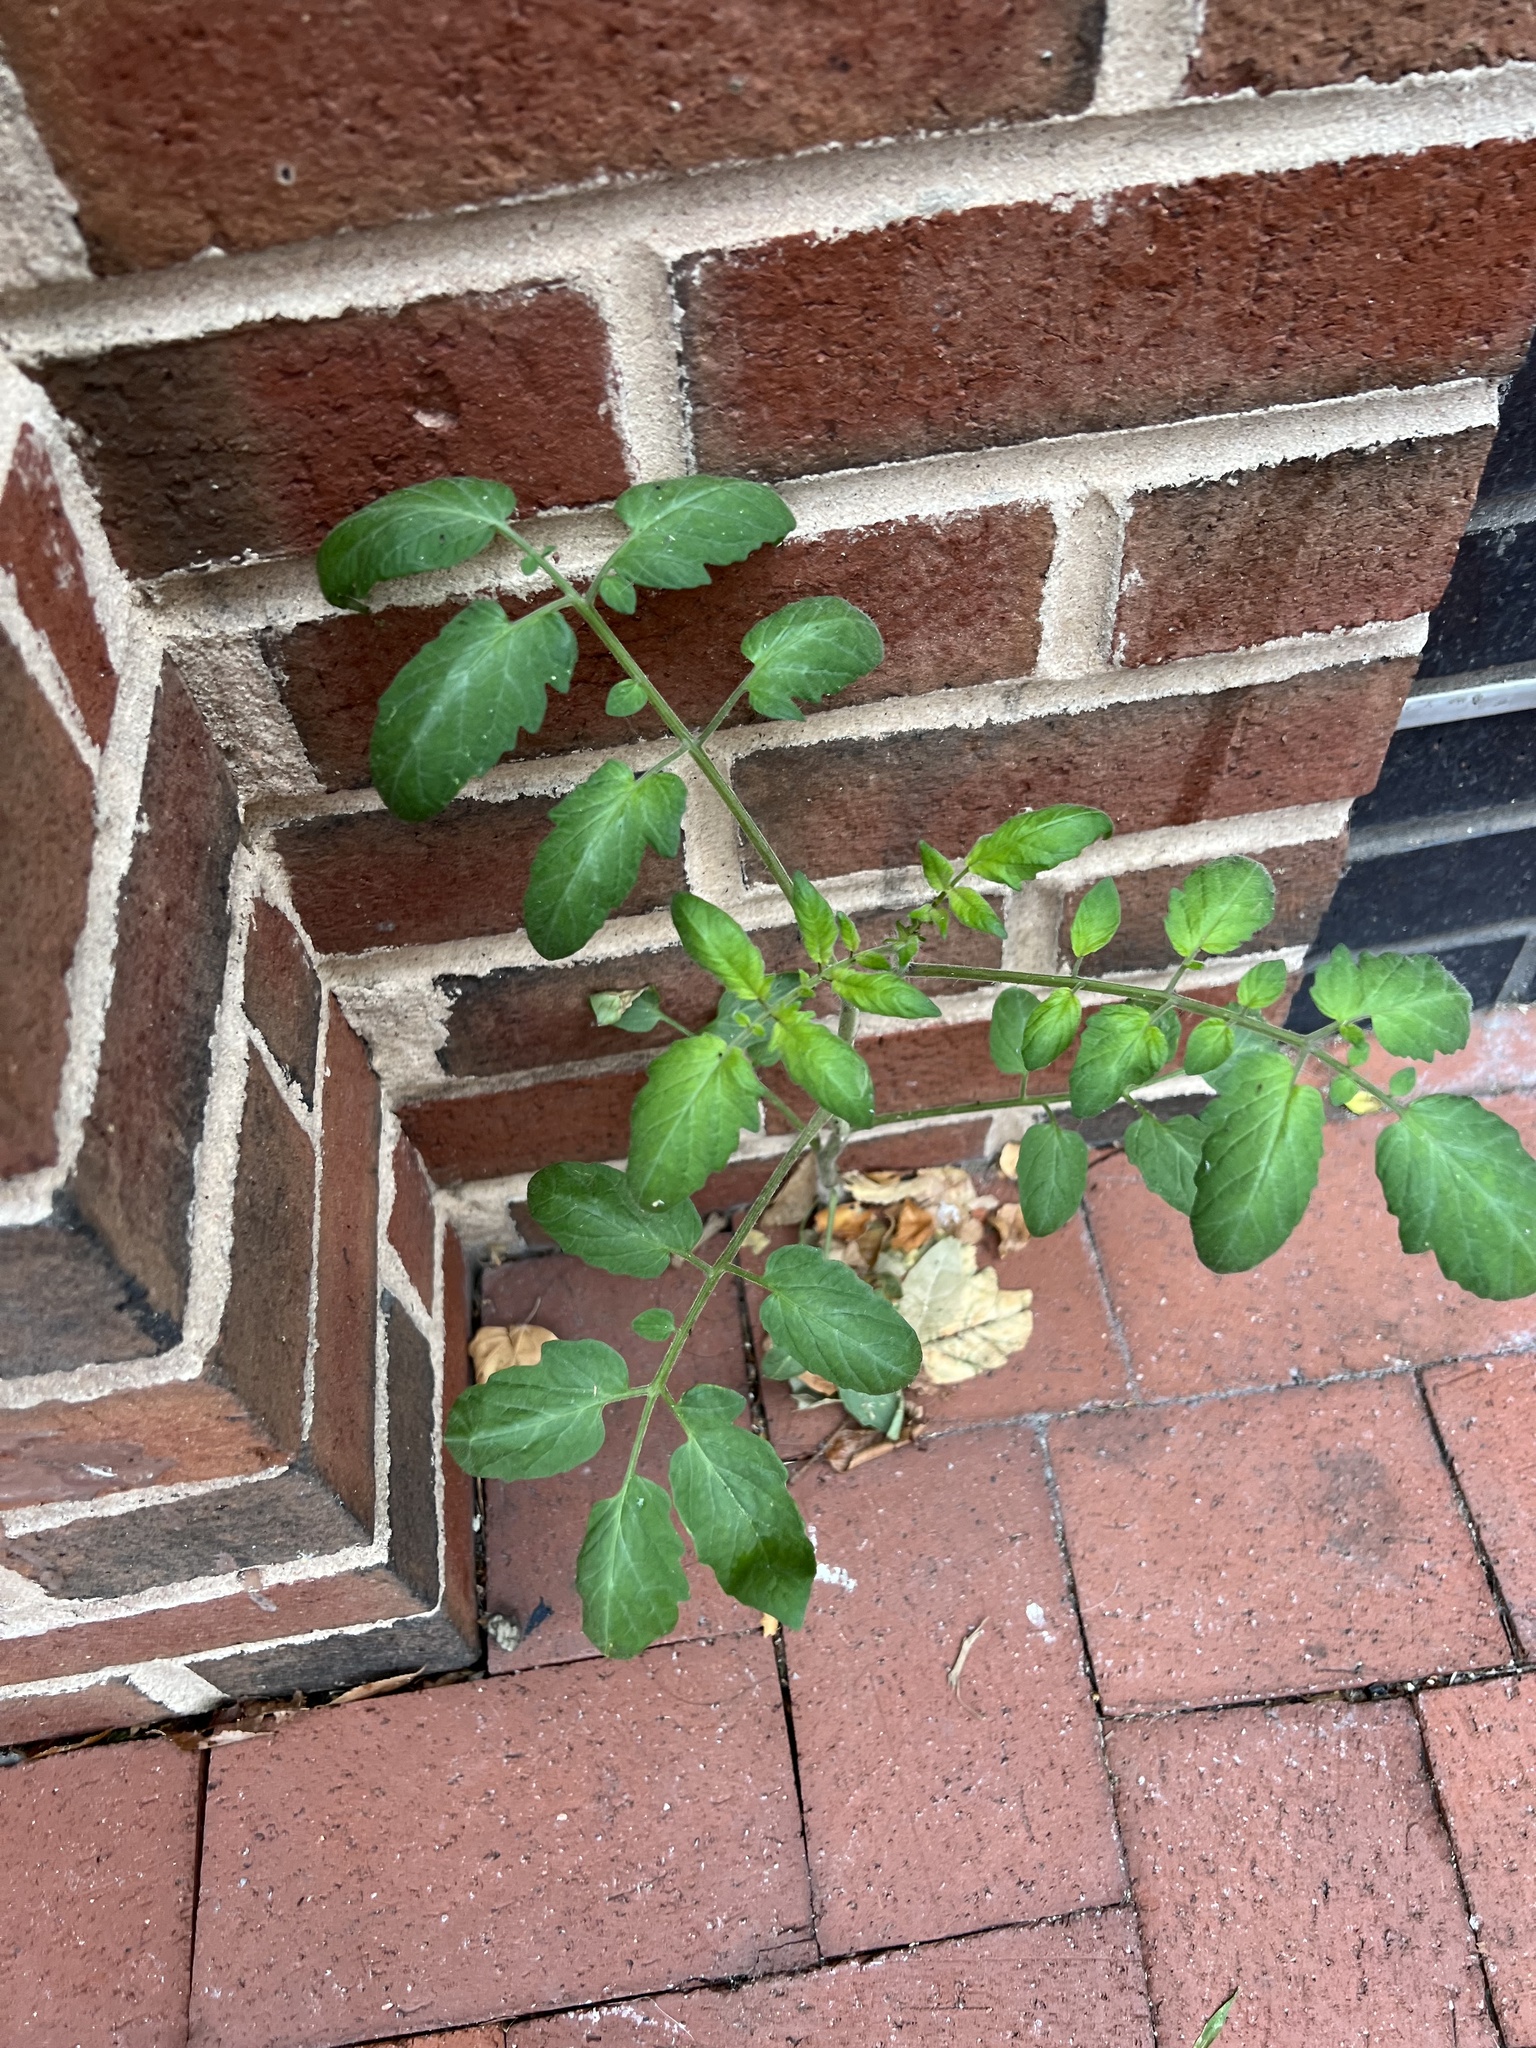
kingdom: Plantae
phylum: Tracheophyta
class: Magnoliopsida
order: Solanales
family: Solanaceae
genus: Solanum
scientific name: Solanum lycopersicum
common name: Garden tomato
